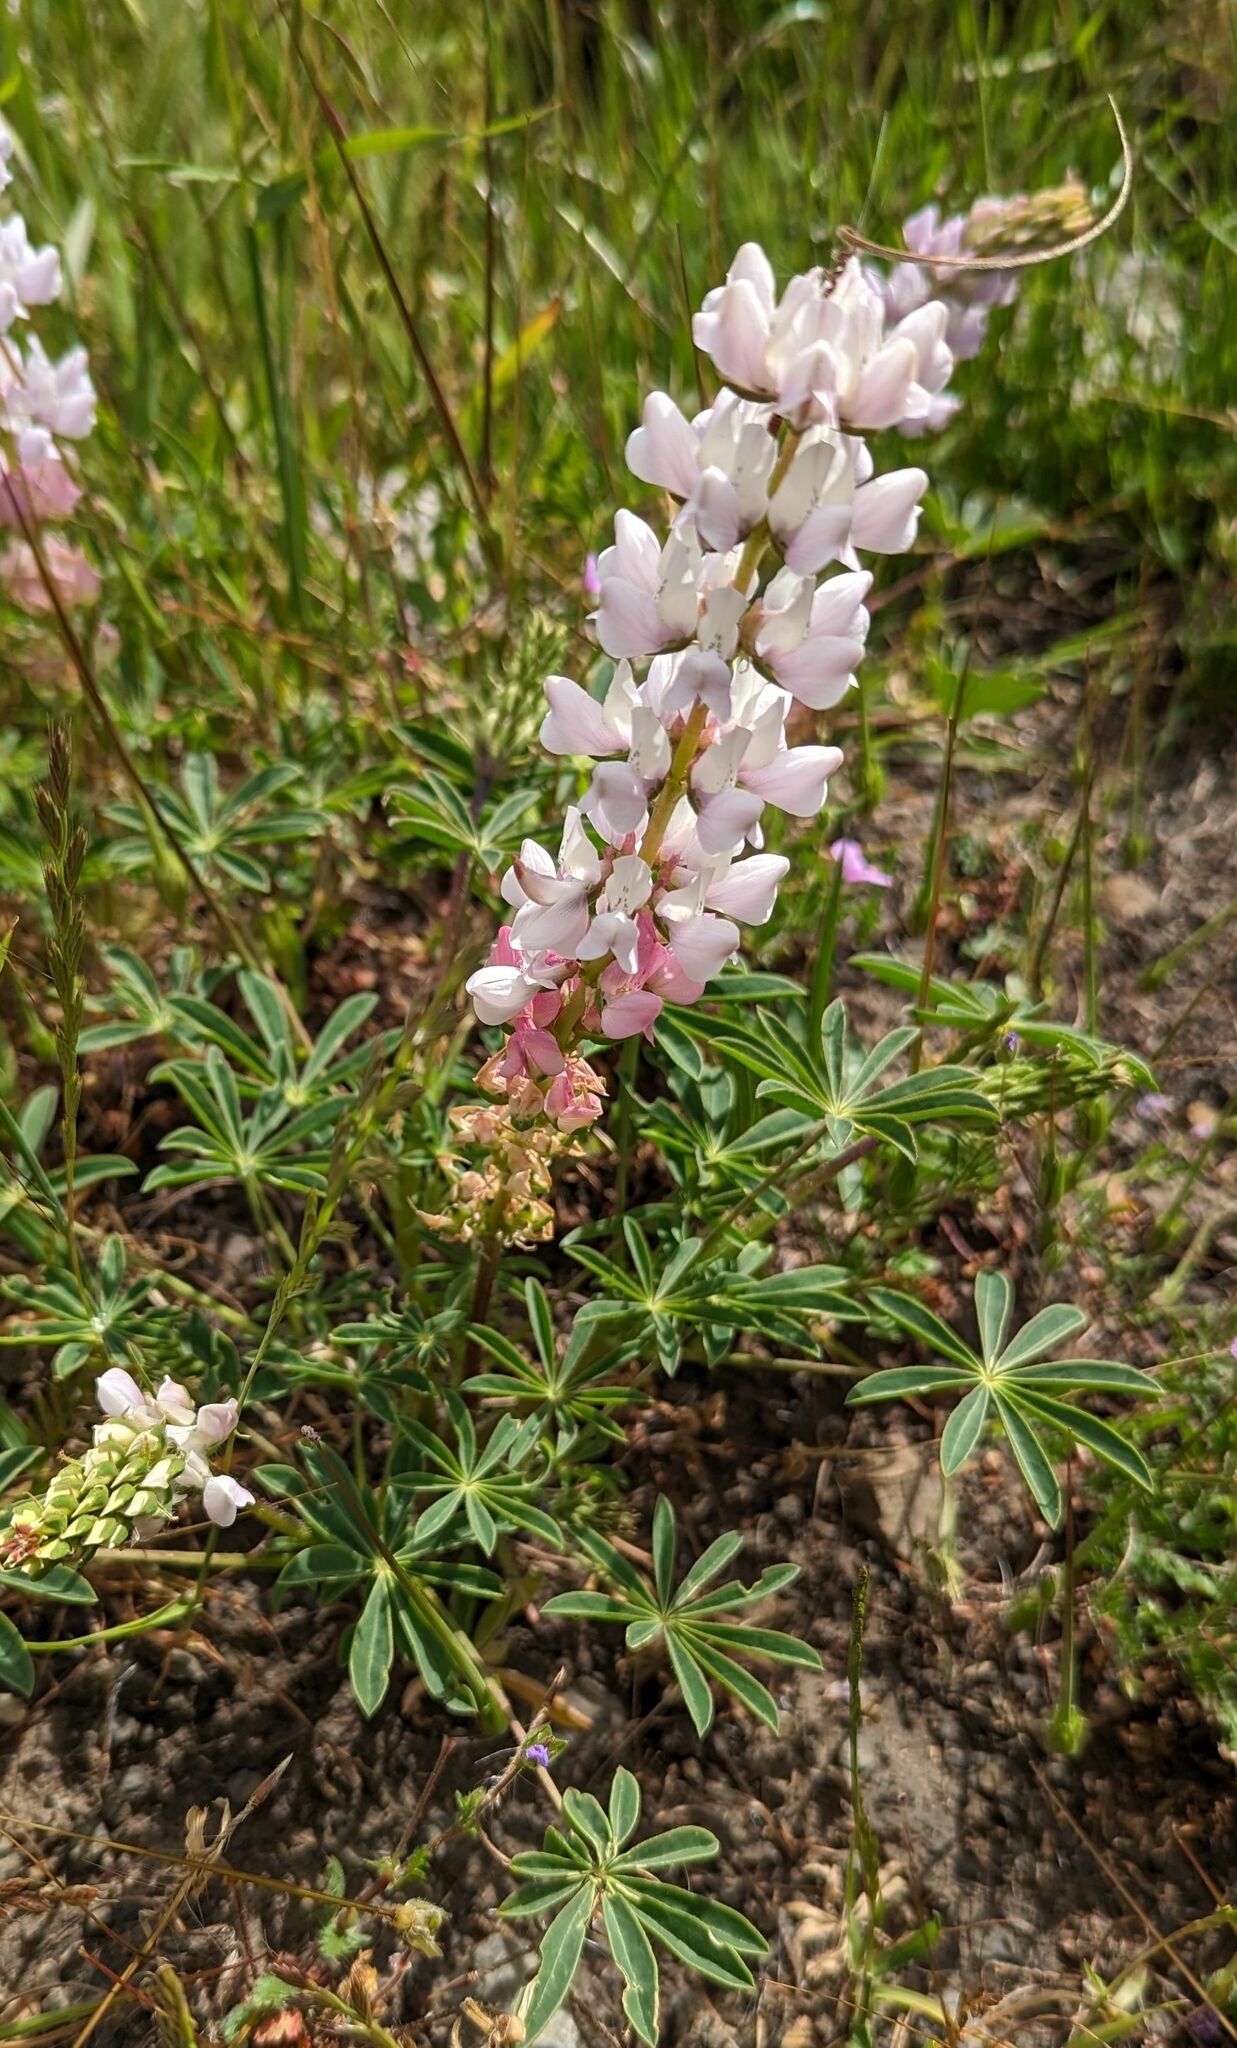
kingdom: Plantae
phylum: Tracheophyta
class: Magnoliopsida
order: Fabales
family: Fabaceae
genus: Lupinus
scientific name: Lupinus microcarpus
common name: Chick lupine
